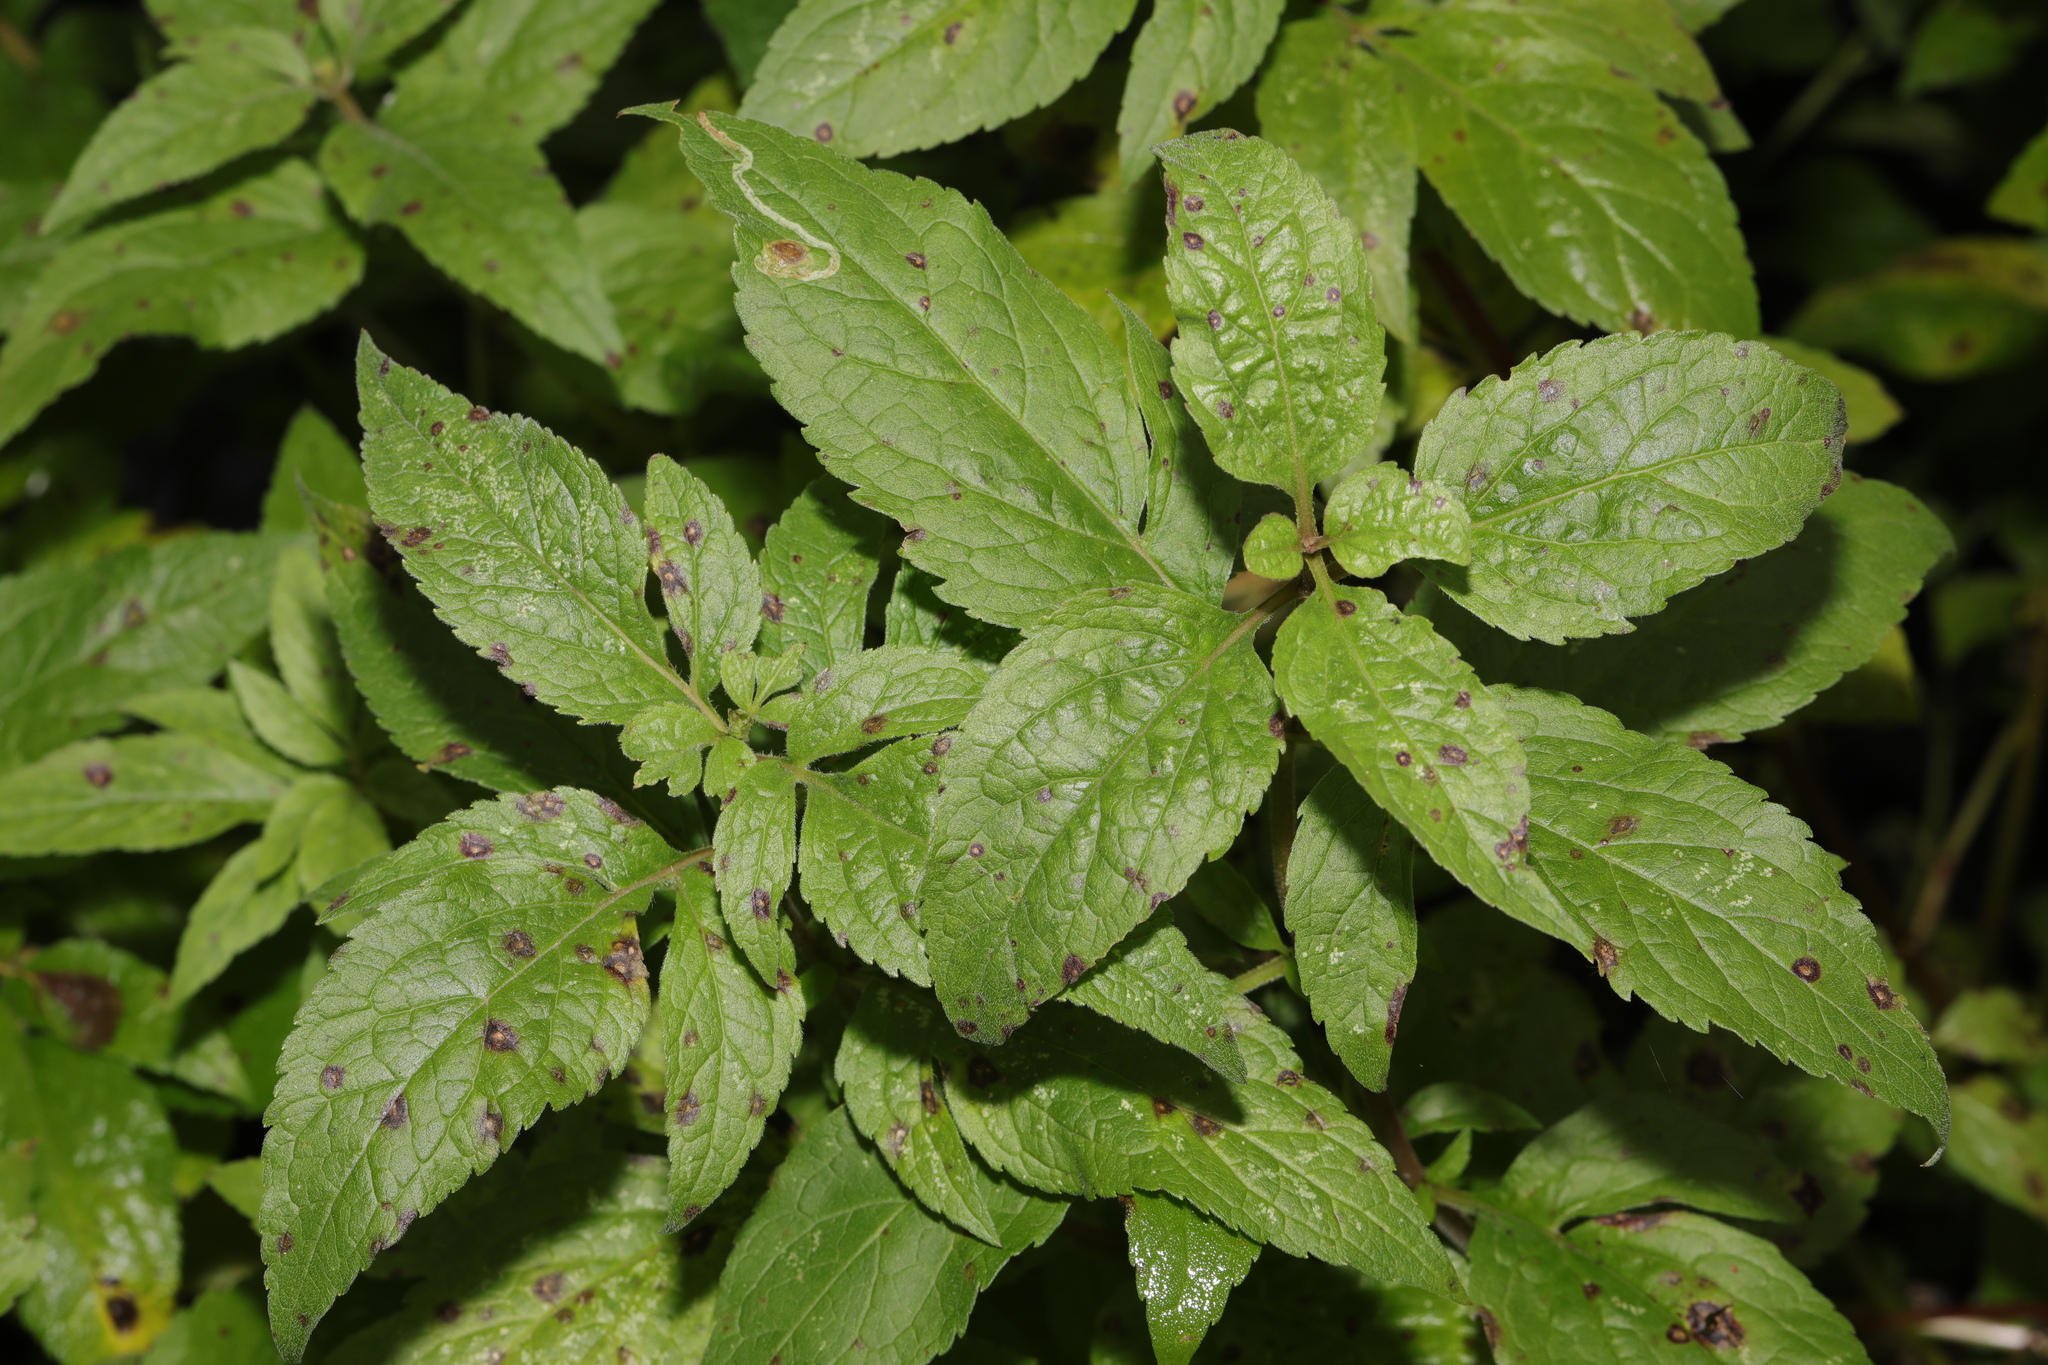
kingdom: Plantae
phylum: Tracheophyta
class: Magnoliopsida
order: Asterales
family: Asteraceae
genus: Eupatorium
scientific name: Eupatorium cannabinum
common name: Hemp-agrimony
